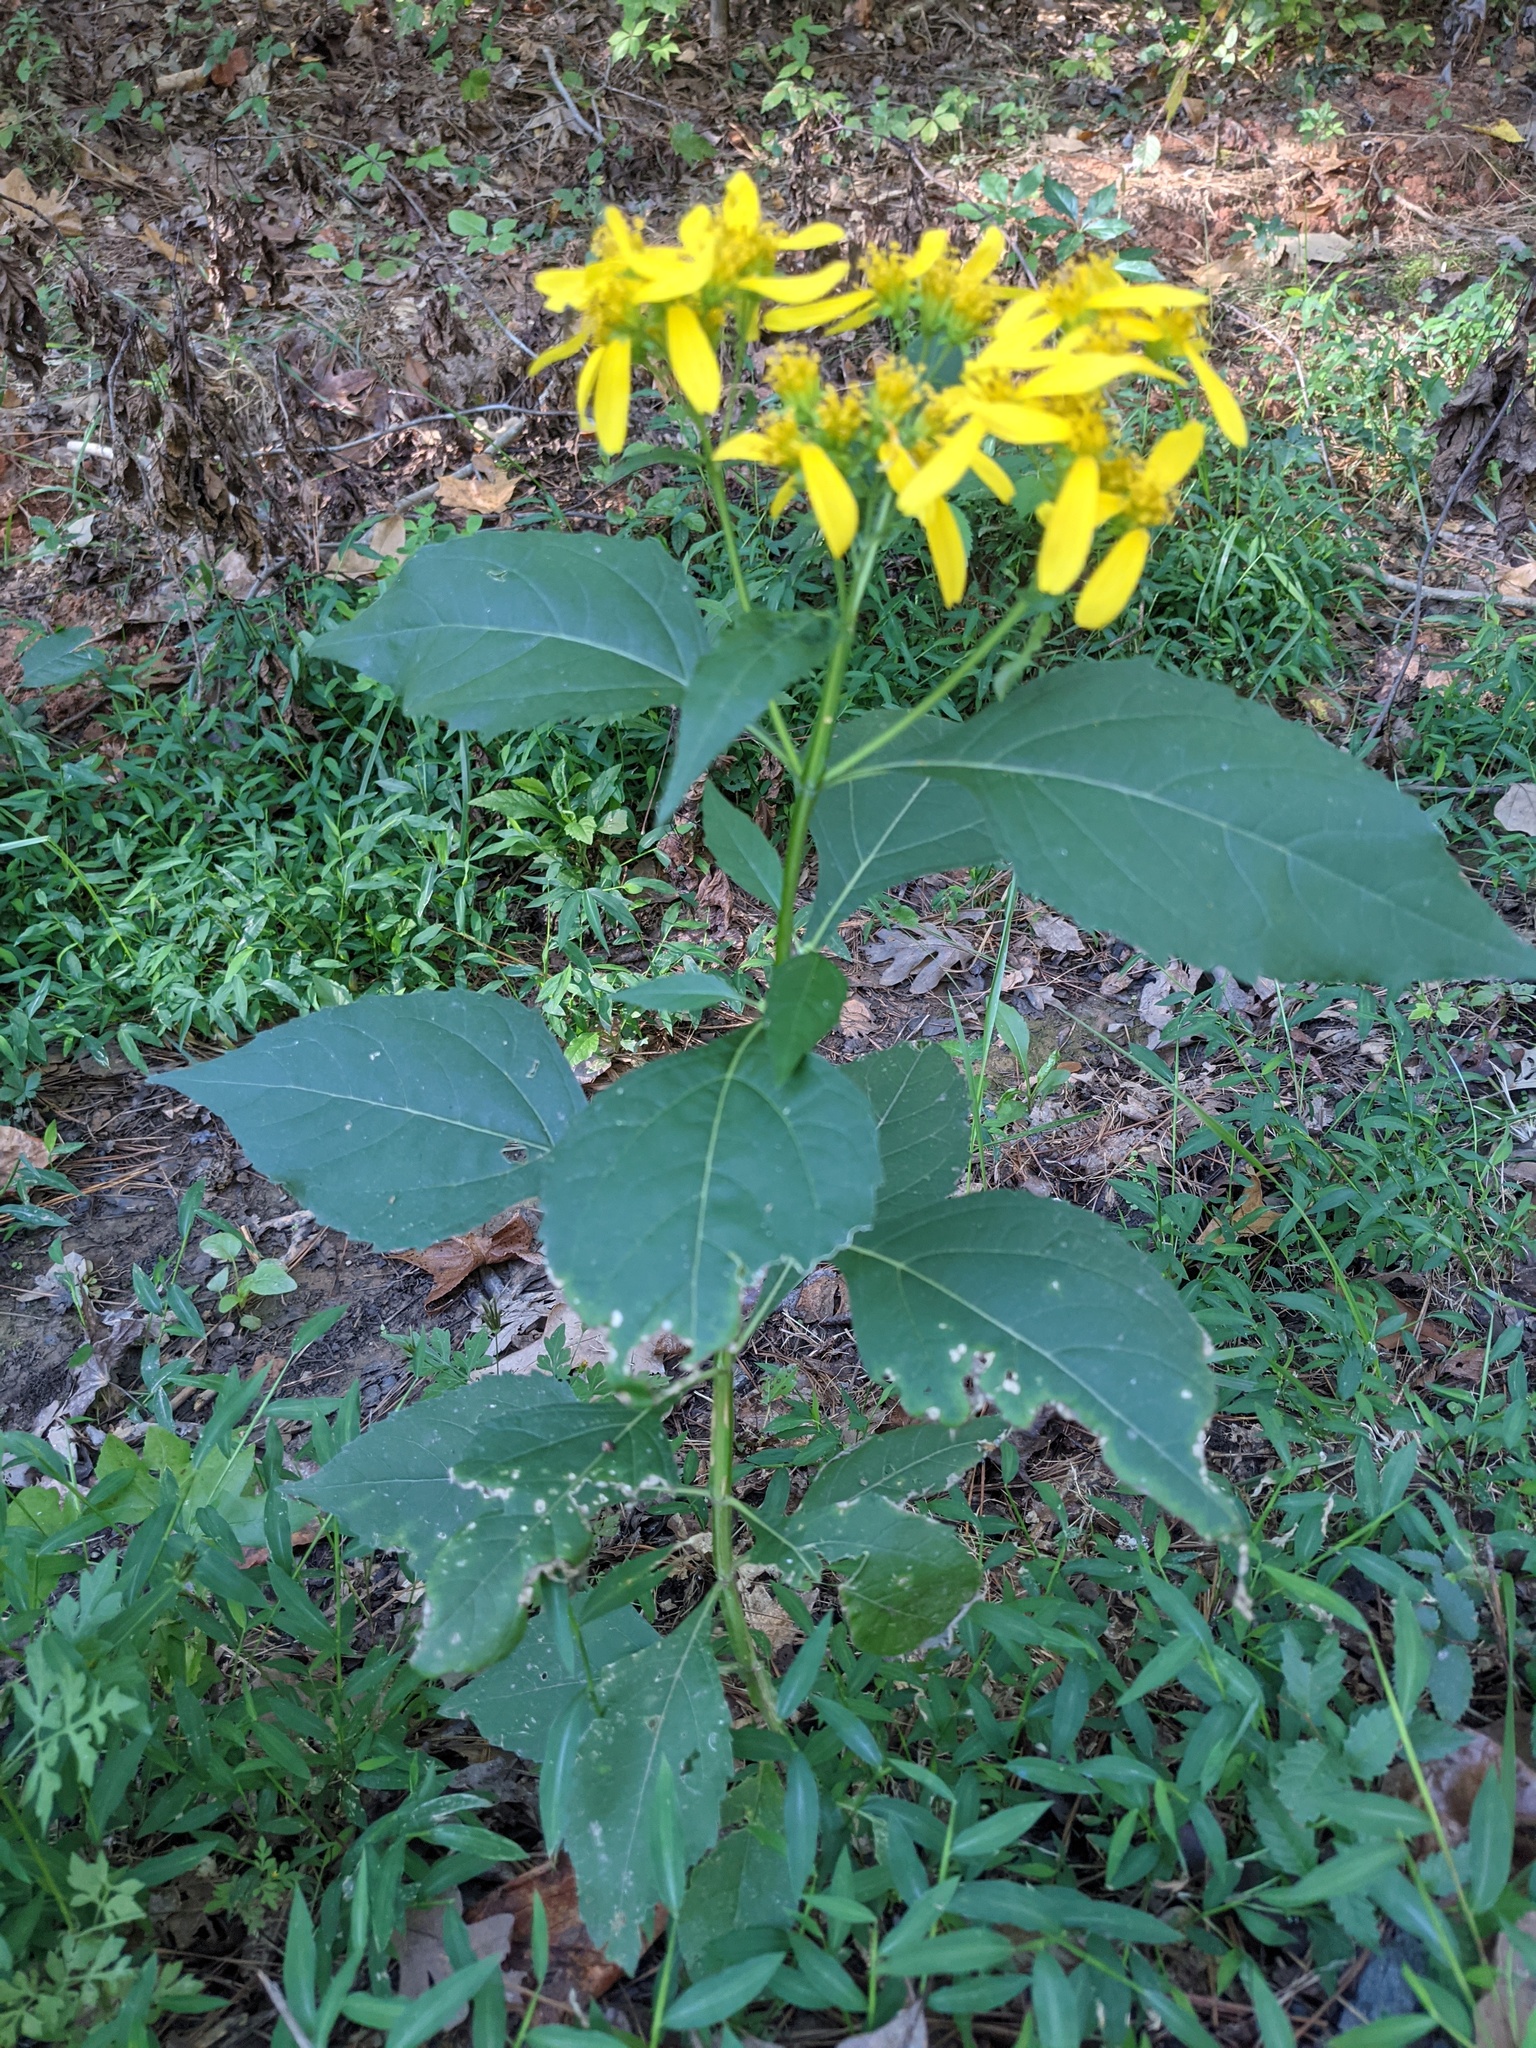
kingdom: Plantae
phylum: Tracheophyta
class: Magnoliopsida
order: Asterales
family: Asteraceae
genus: Verbesina
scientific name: Verbesina occidentalis
